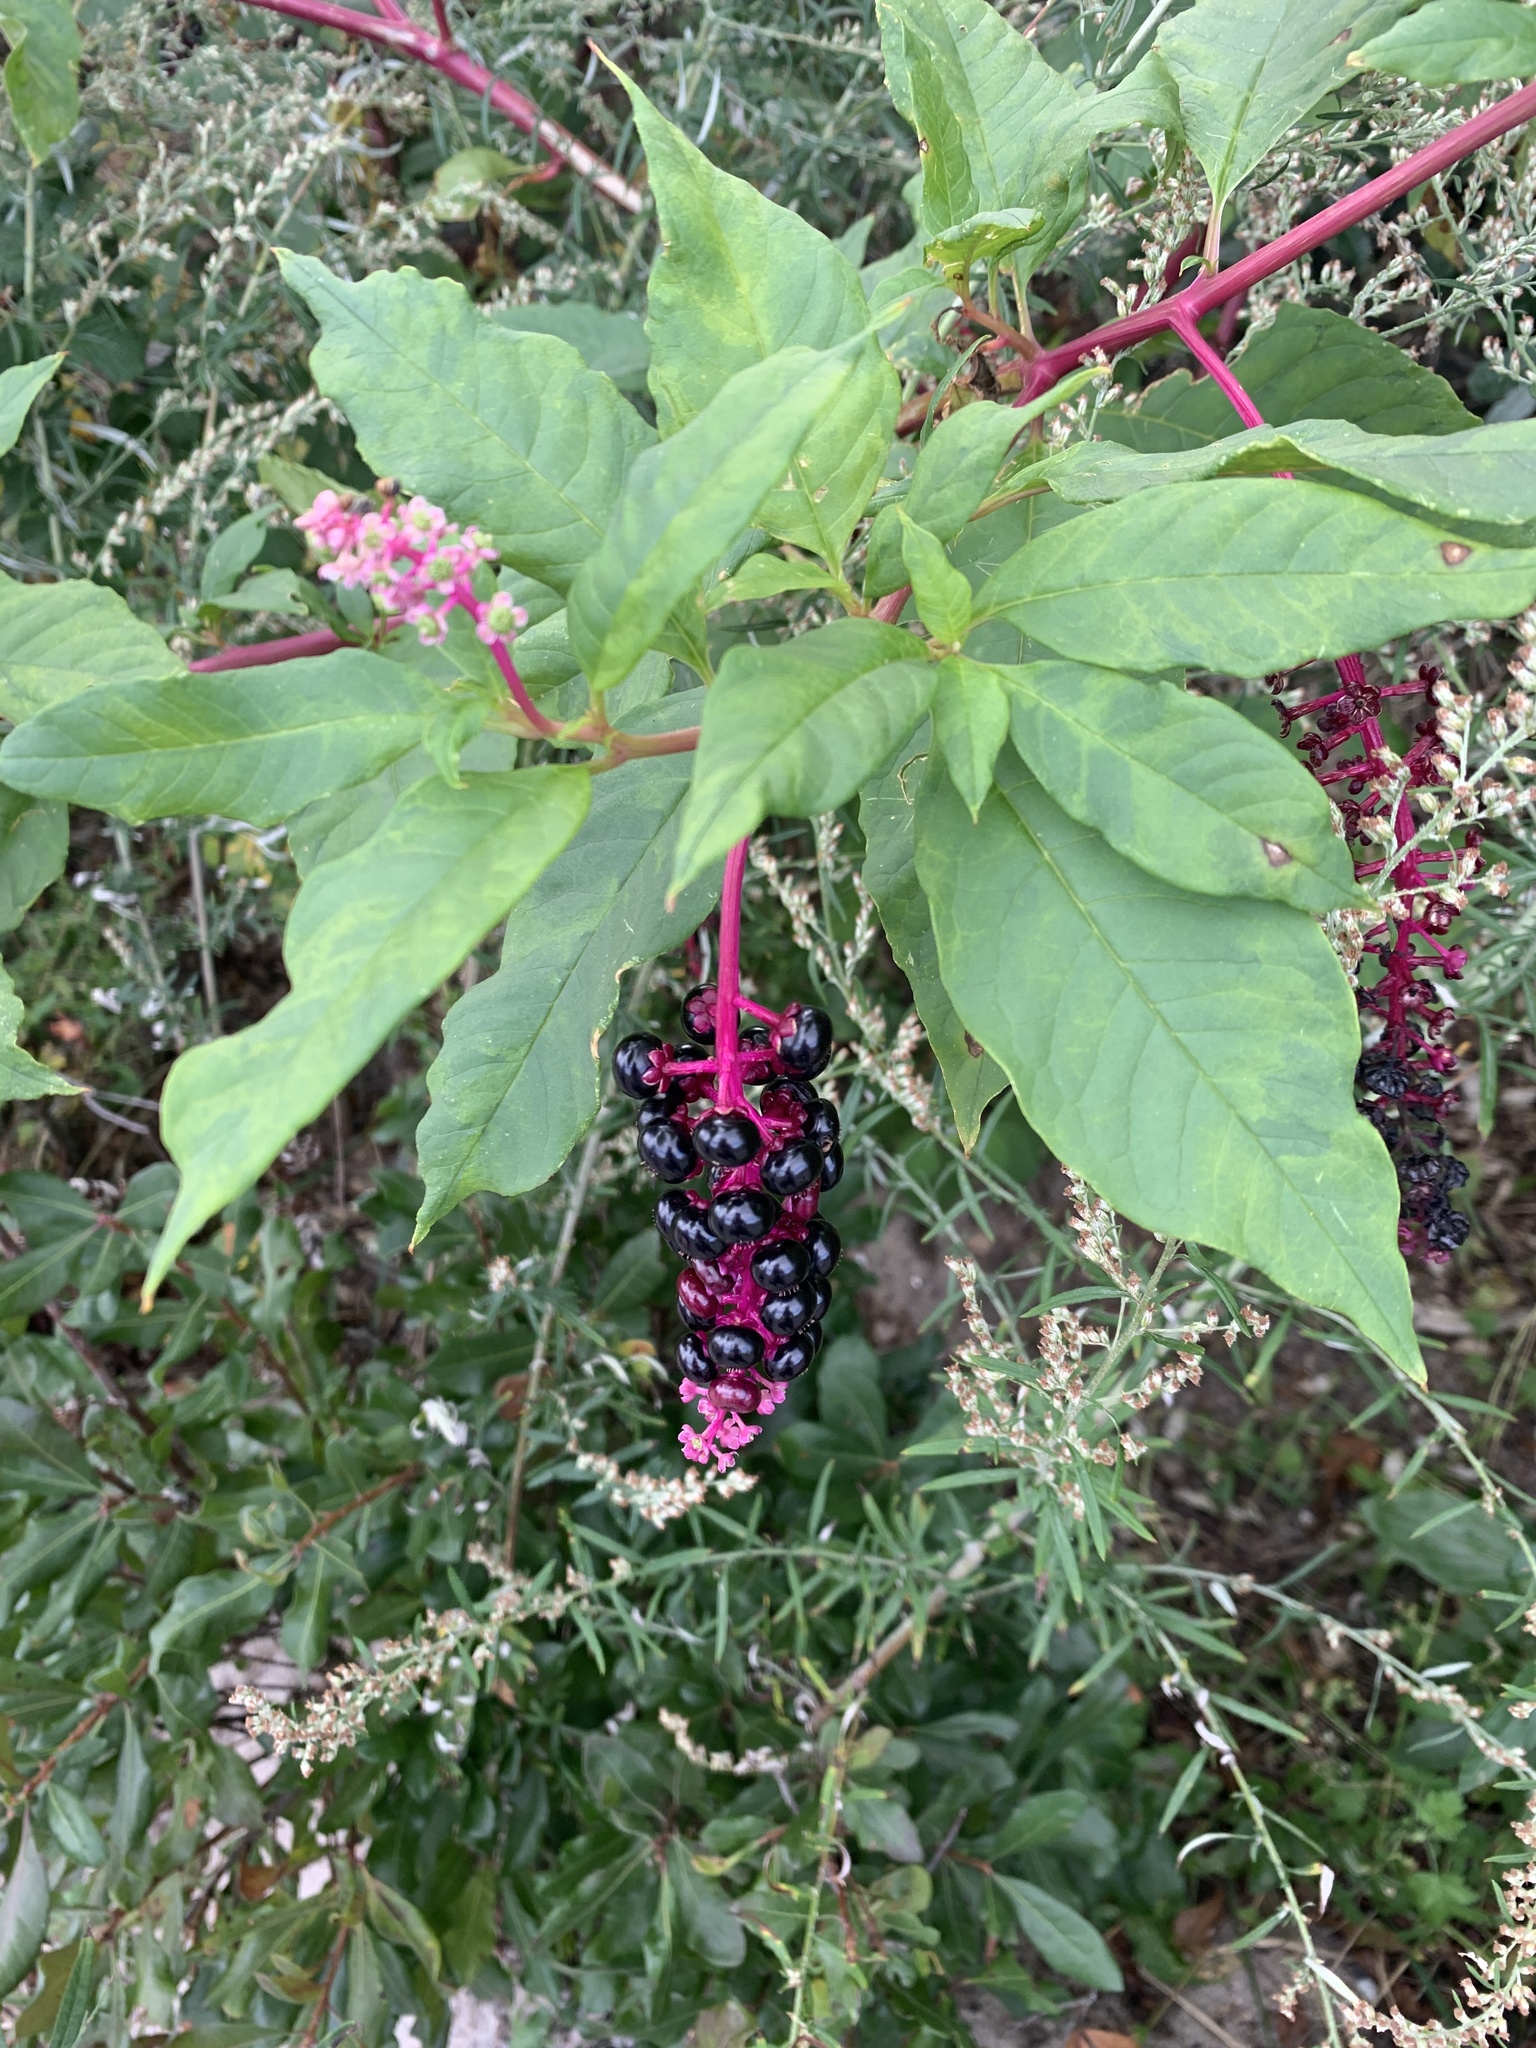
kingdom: Plantae
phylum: Tracheophyta
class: Magnoliopsida
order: Caryophyllales
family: Phytolaccaceae
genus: Phytolacca
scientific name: Phytolacca americana
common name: American pokeweed
